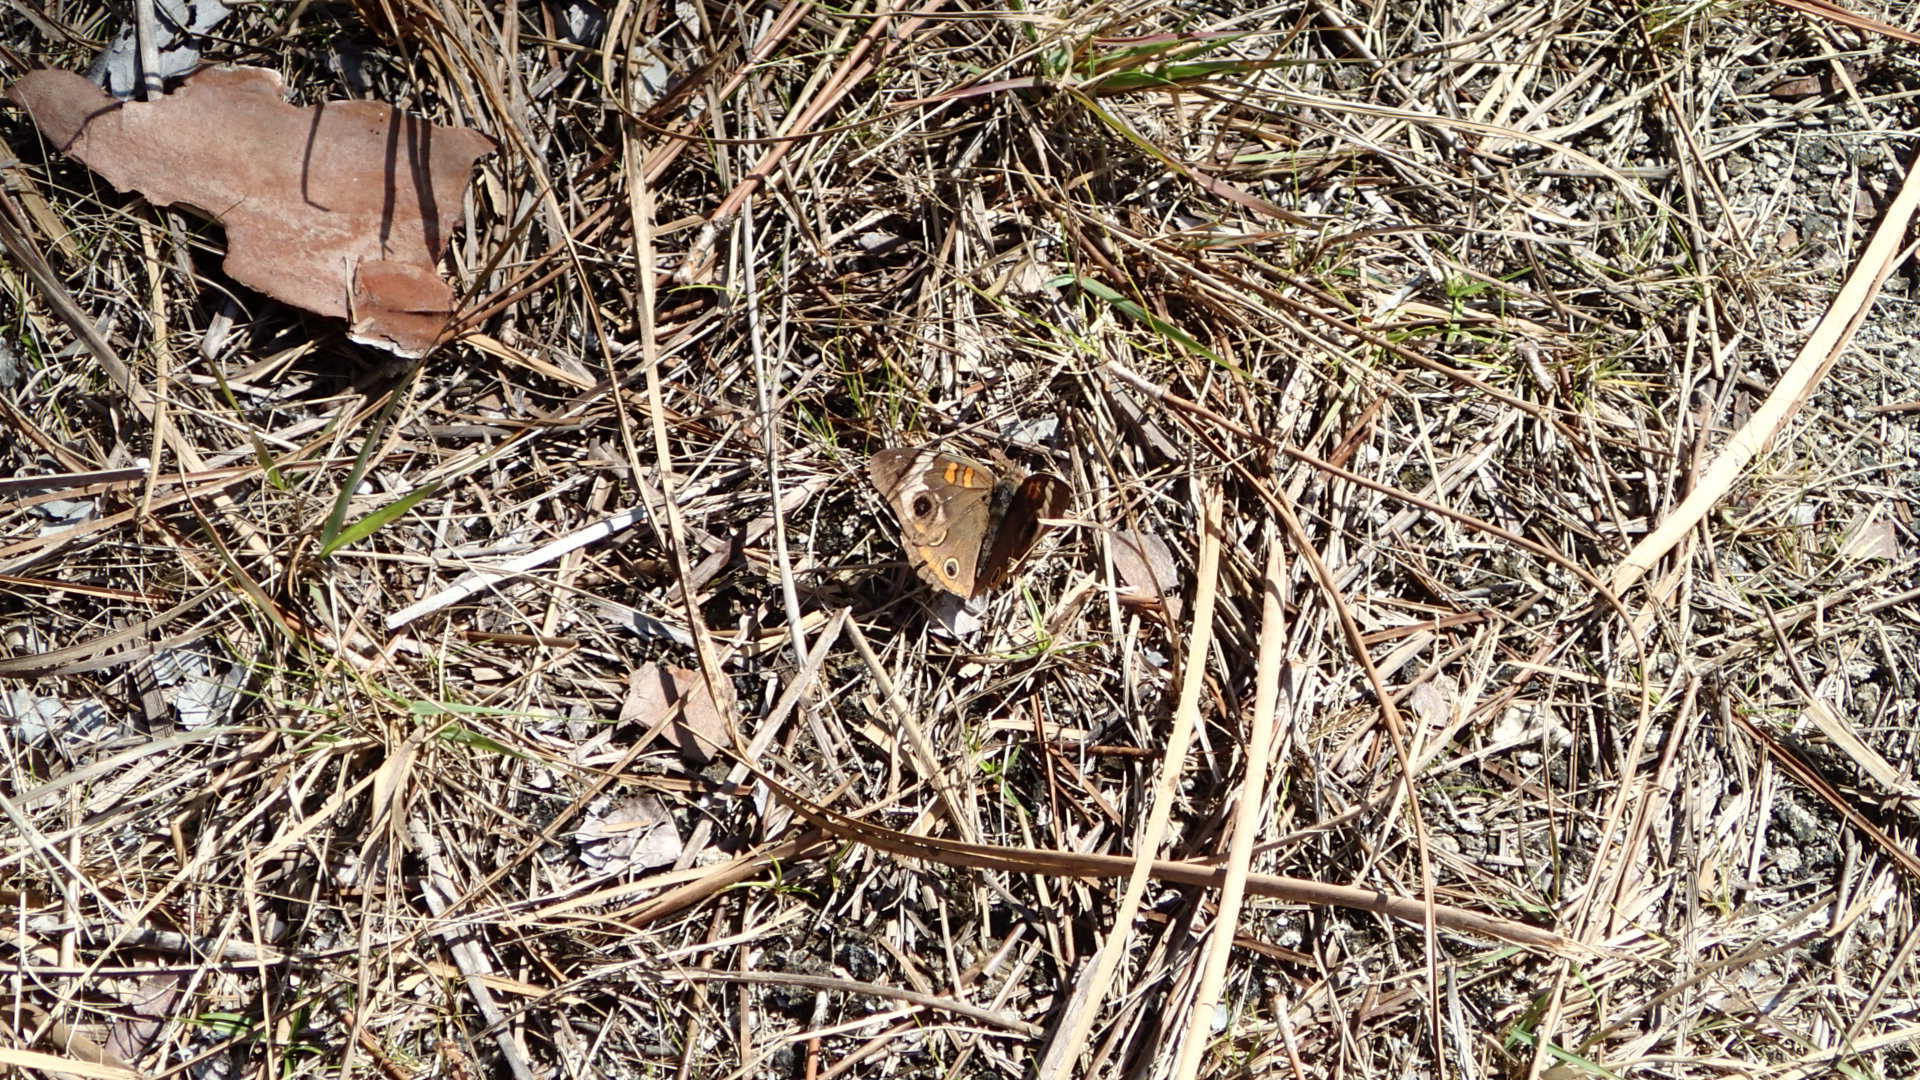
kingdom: Animalia
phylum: Arthropoda
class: Insecta
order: Lepidoptera
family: Nymphalidae
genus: Junonia
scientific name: Junonia coenia
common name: Common buckeye
